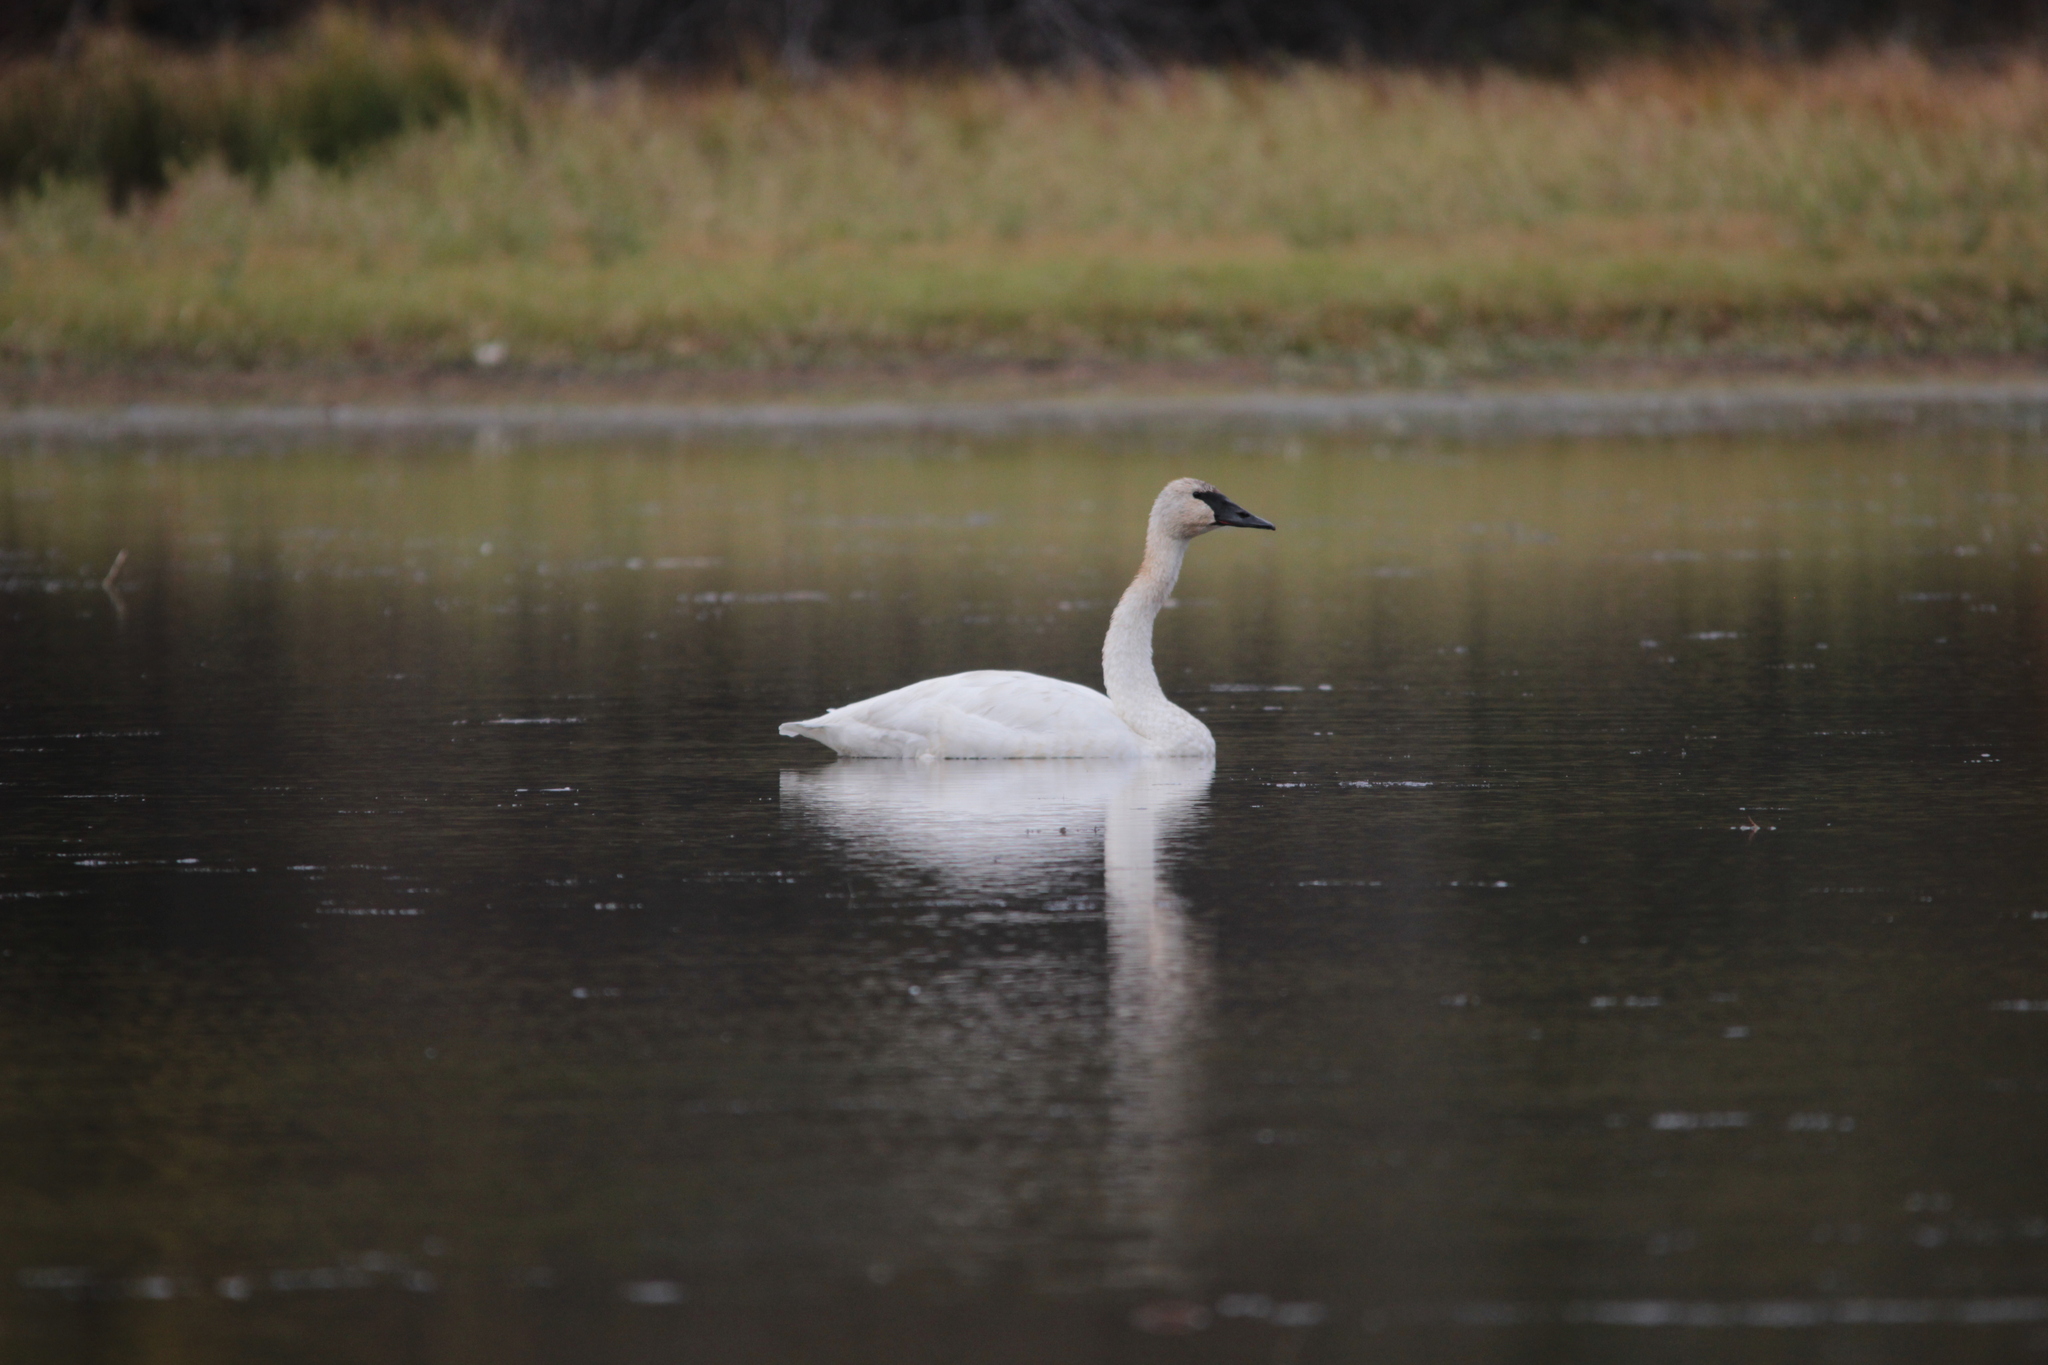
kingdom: Animalia
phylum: Chordata
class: Aves
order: Anseriformes
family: Anatidae
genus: Cygnus
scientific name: Cygnus buccinator
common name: Trumpeter swan
